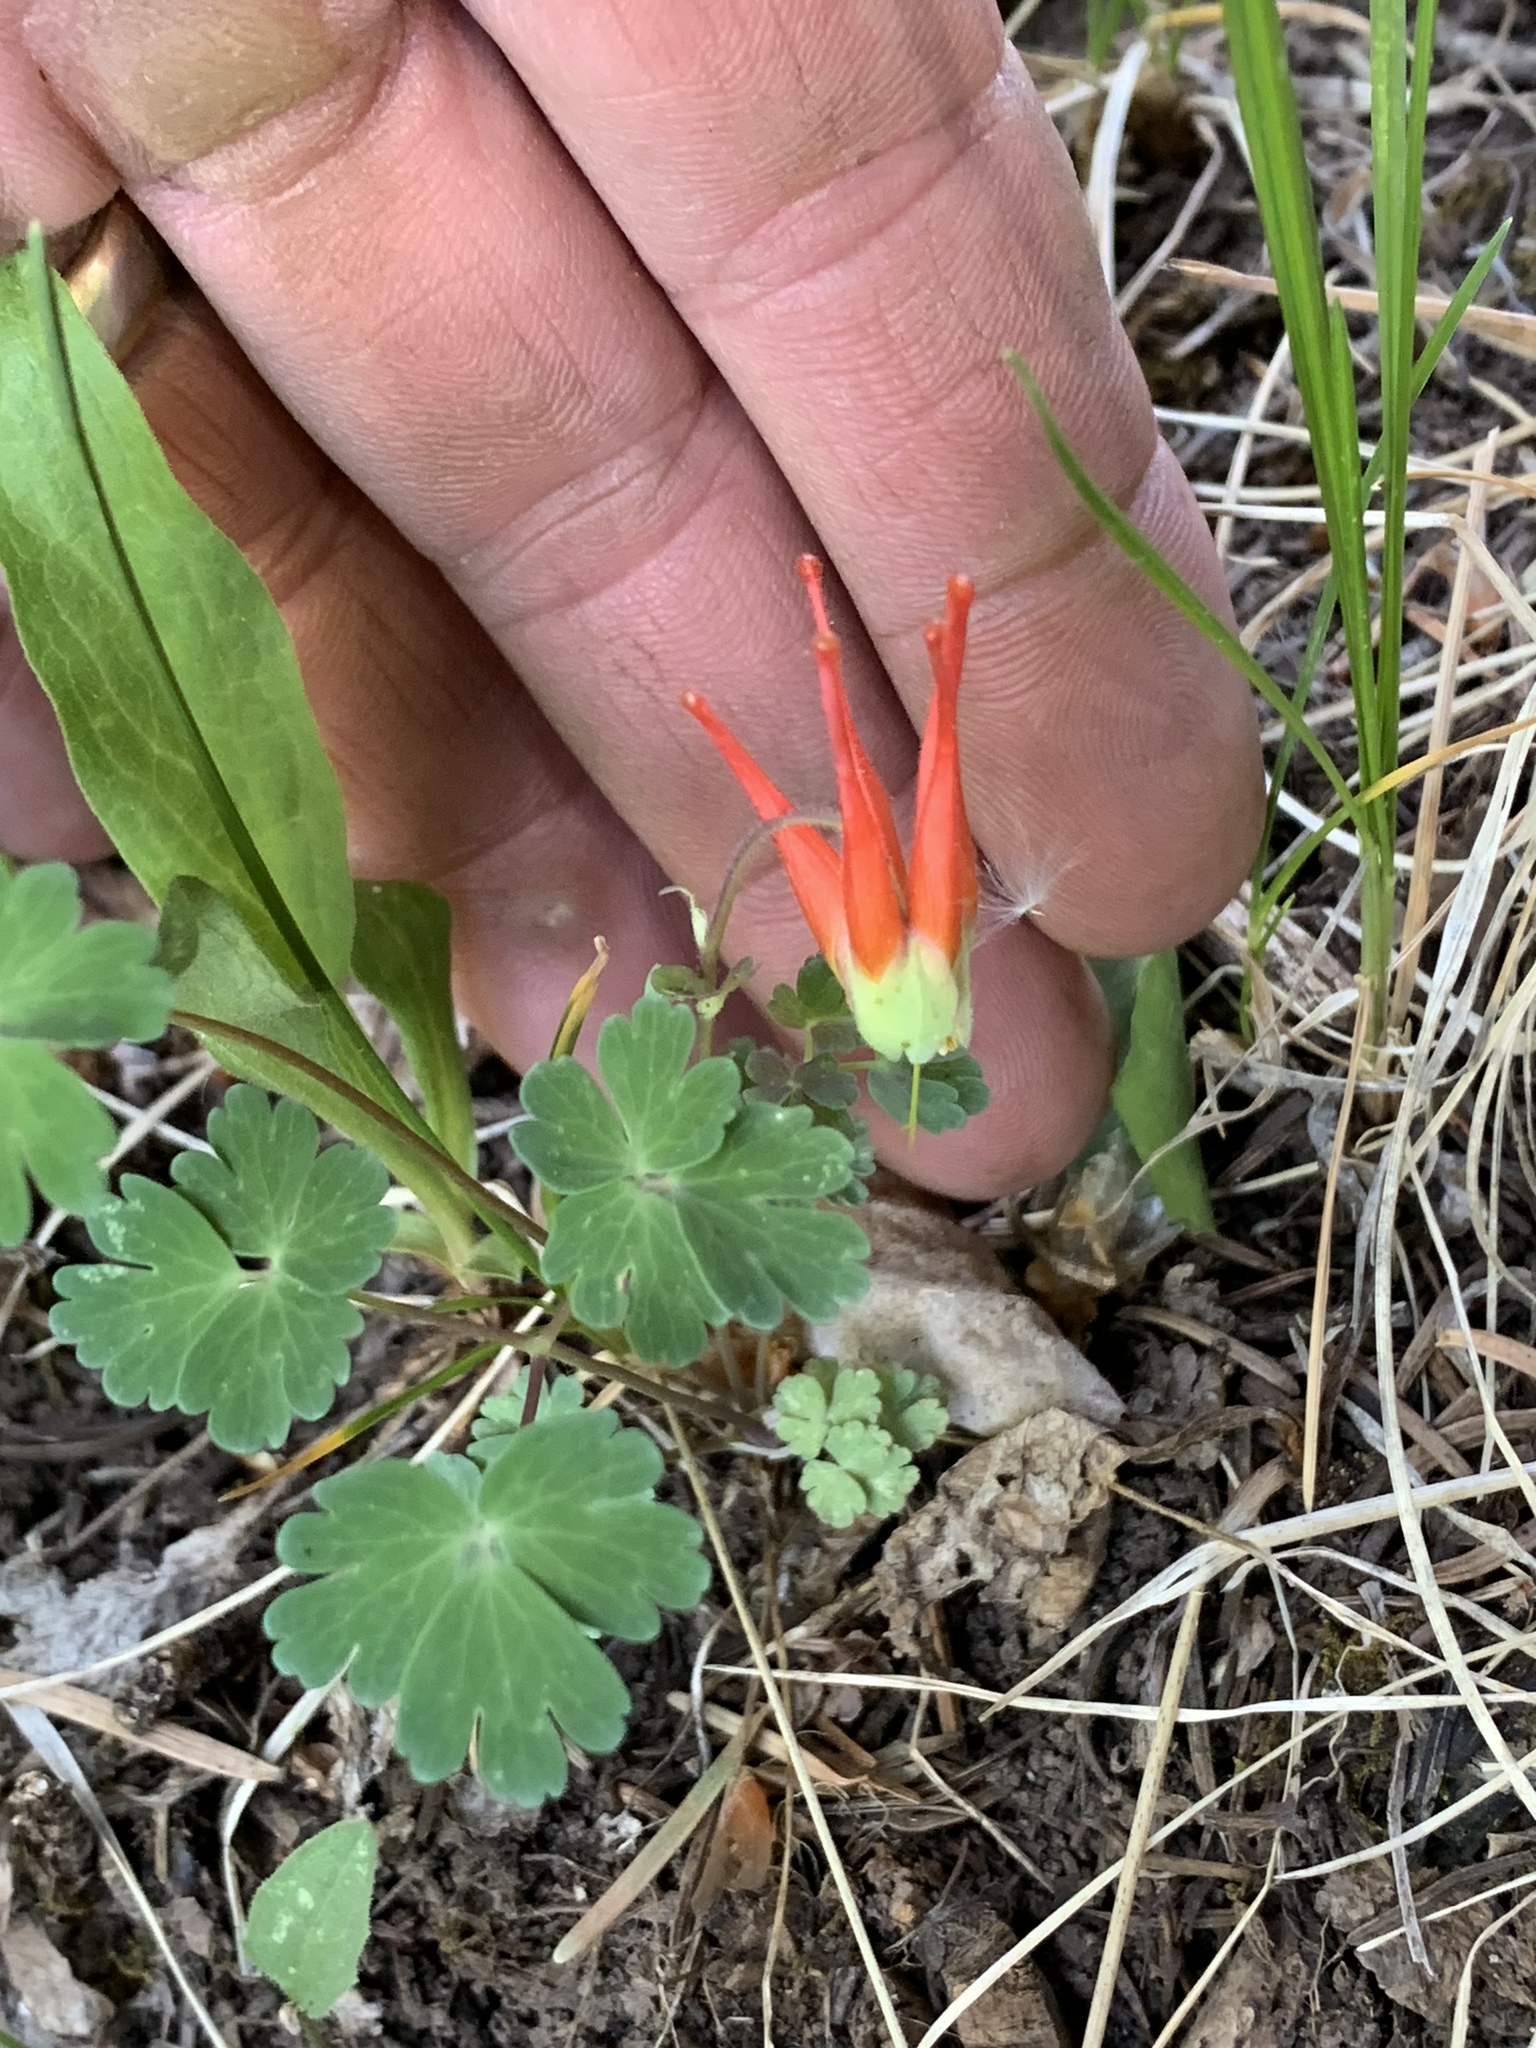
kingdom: Plantae
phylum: Tracheophyta
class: Magnoliopsida
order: Ranunculales
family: Ranunculaceae
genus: Aquilegia
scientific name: Aquilegia elegantula
